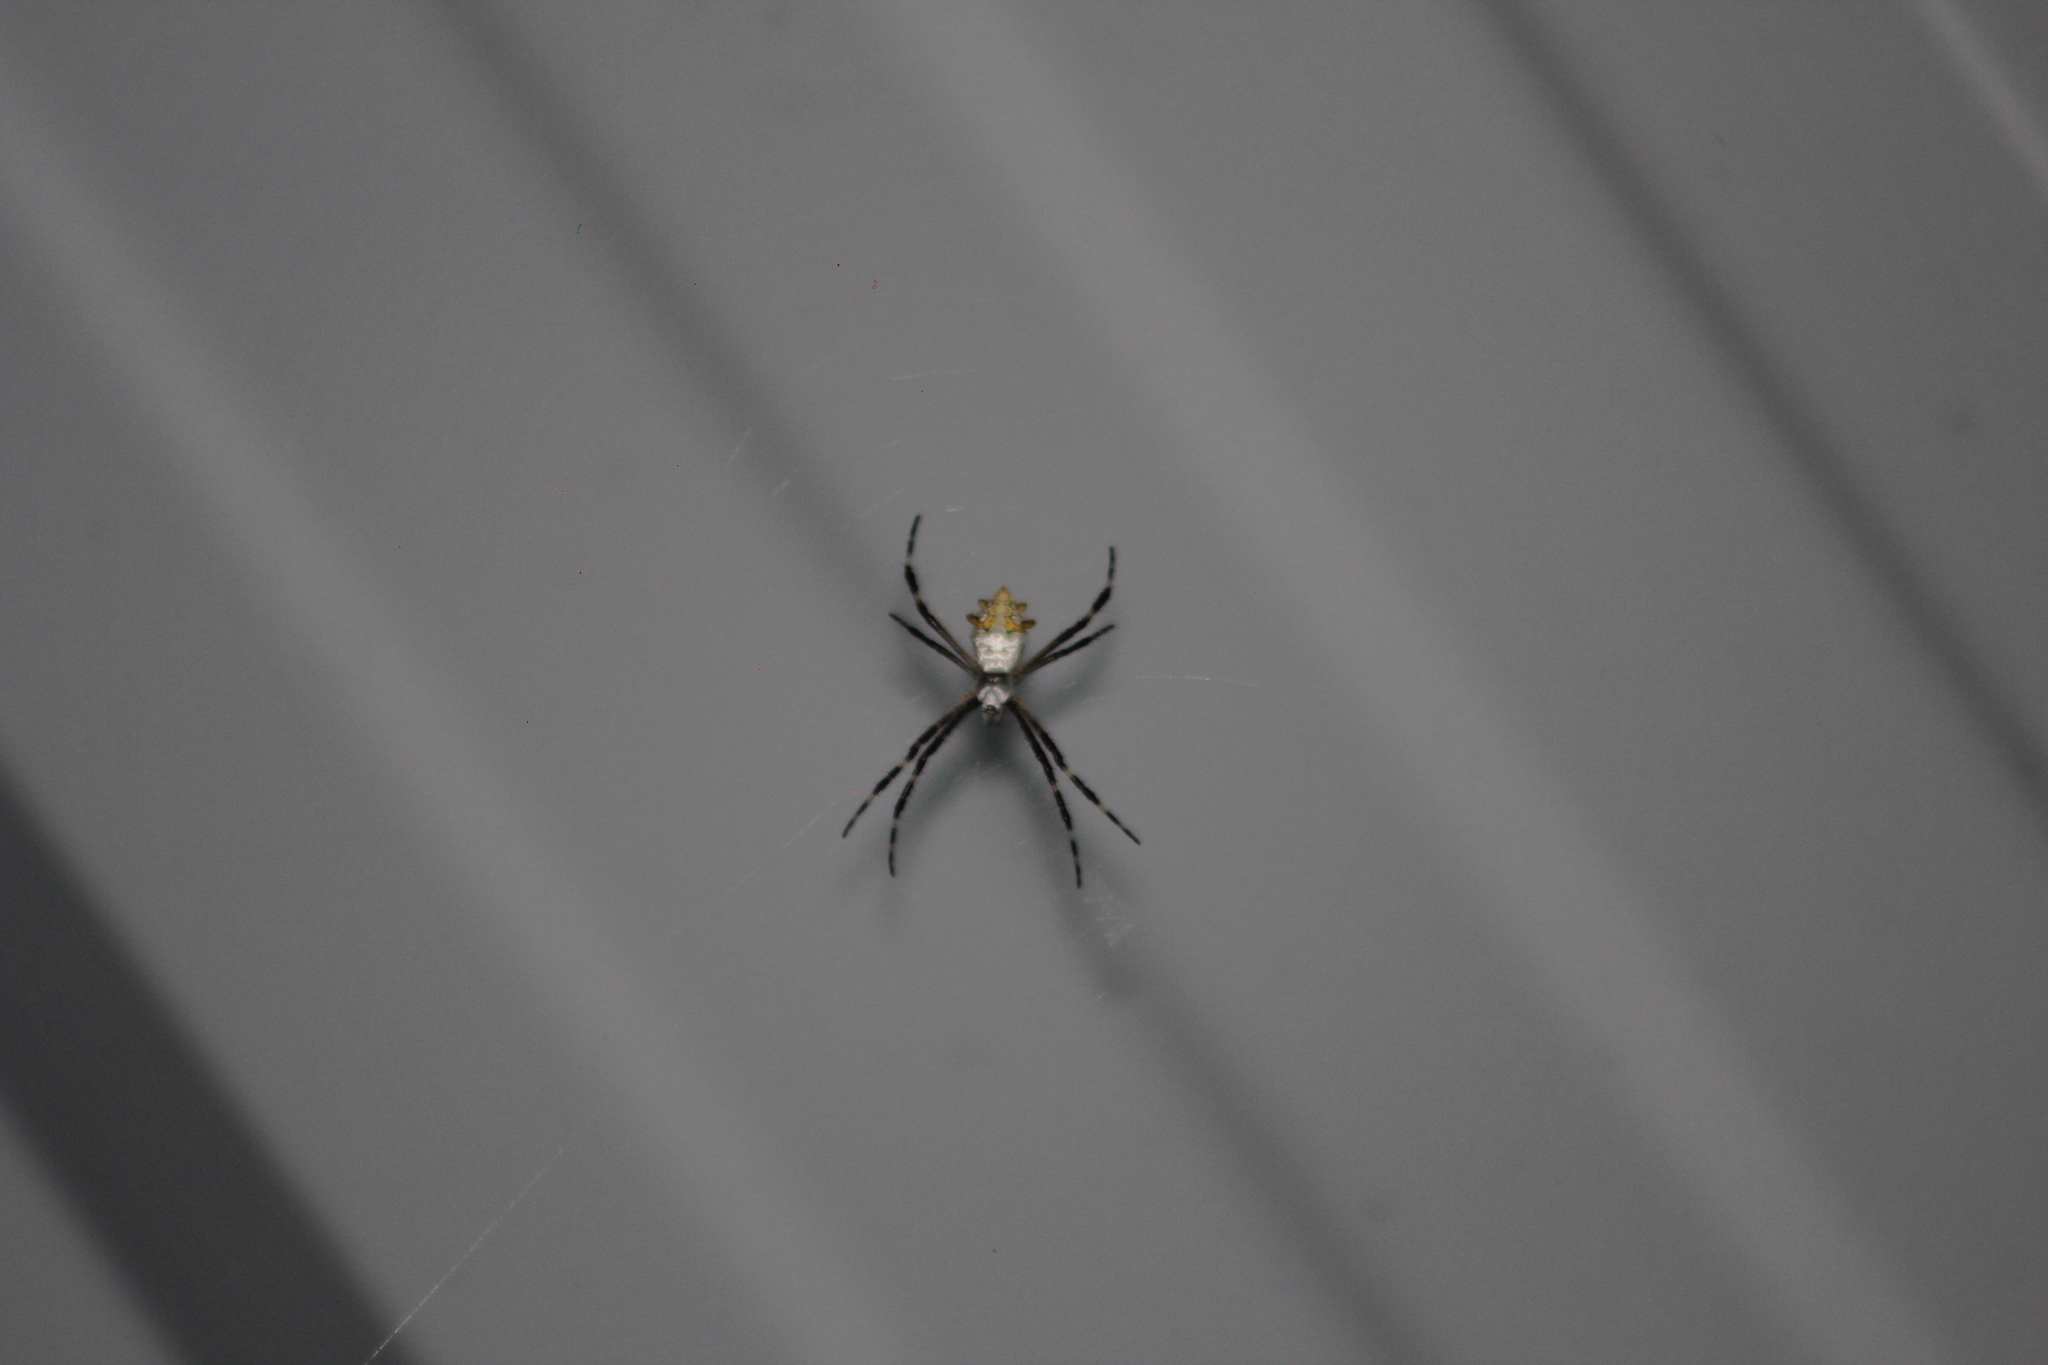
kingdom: Animalia
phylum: Arthropoda
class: Arachnida
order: Araneae
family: Araneidae
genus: Argiope
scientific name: Argiope argentata
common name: Orb weavers
